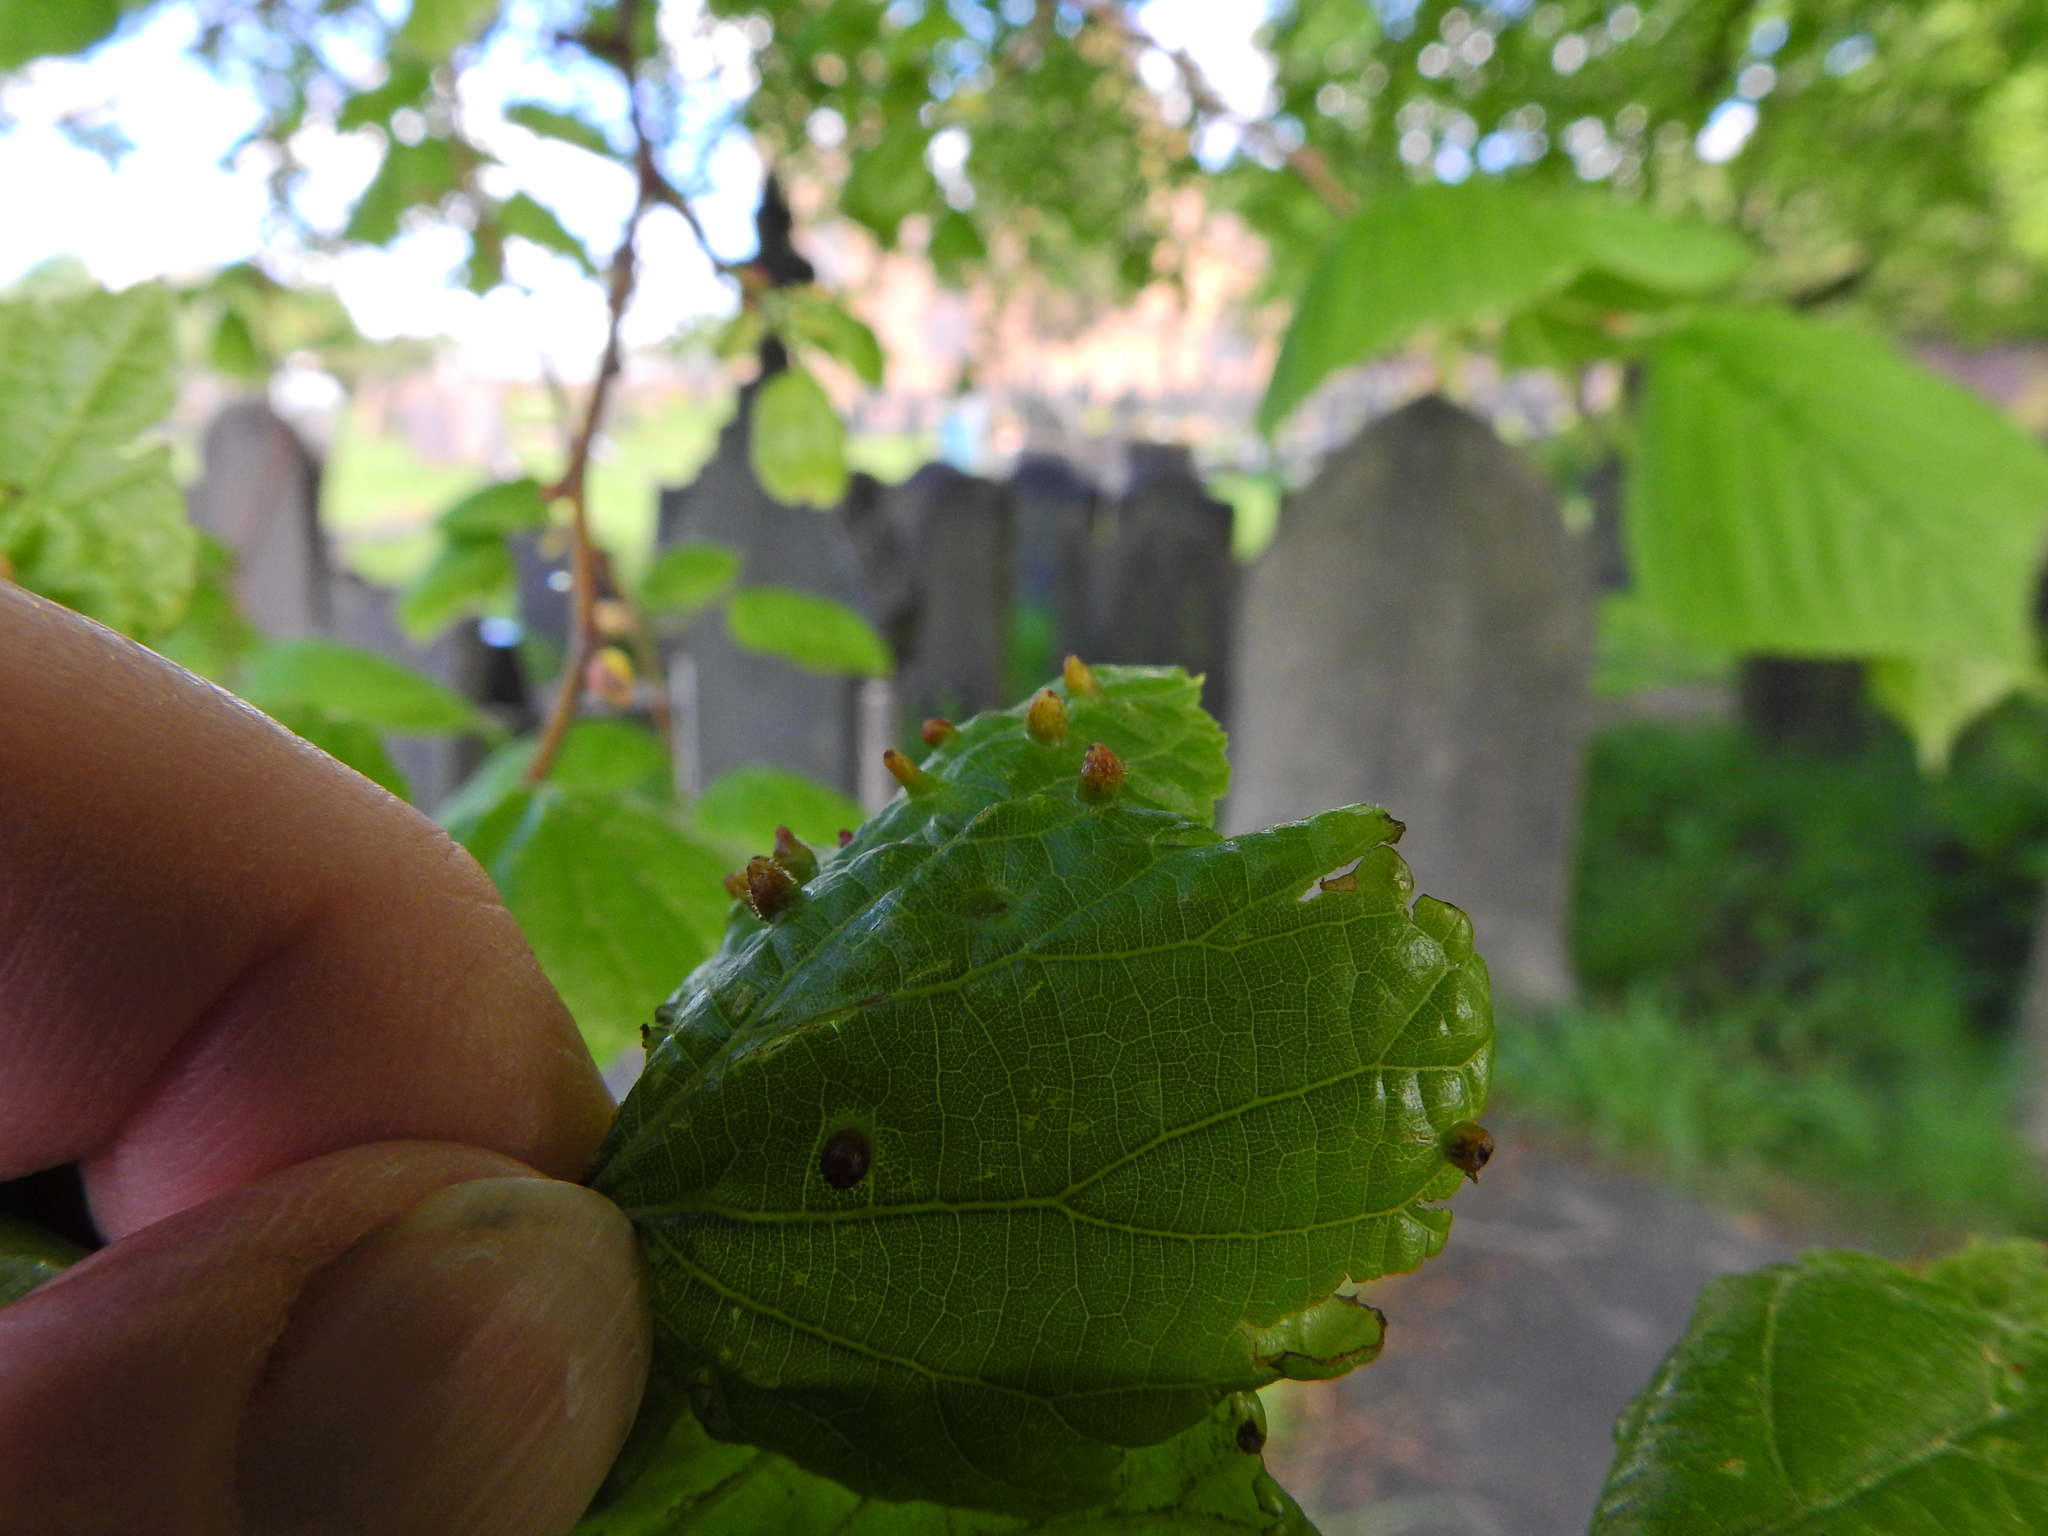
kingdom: Animalia
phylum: Arthropoda
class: Arachnida
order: Trombidiformes
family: Eriophyidae
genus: Eriophyes
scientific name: Eriophyes tiliae
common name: Red nail gall mite
